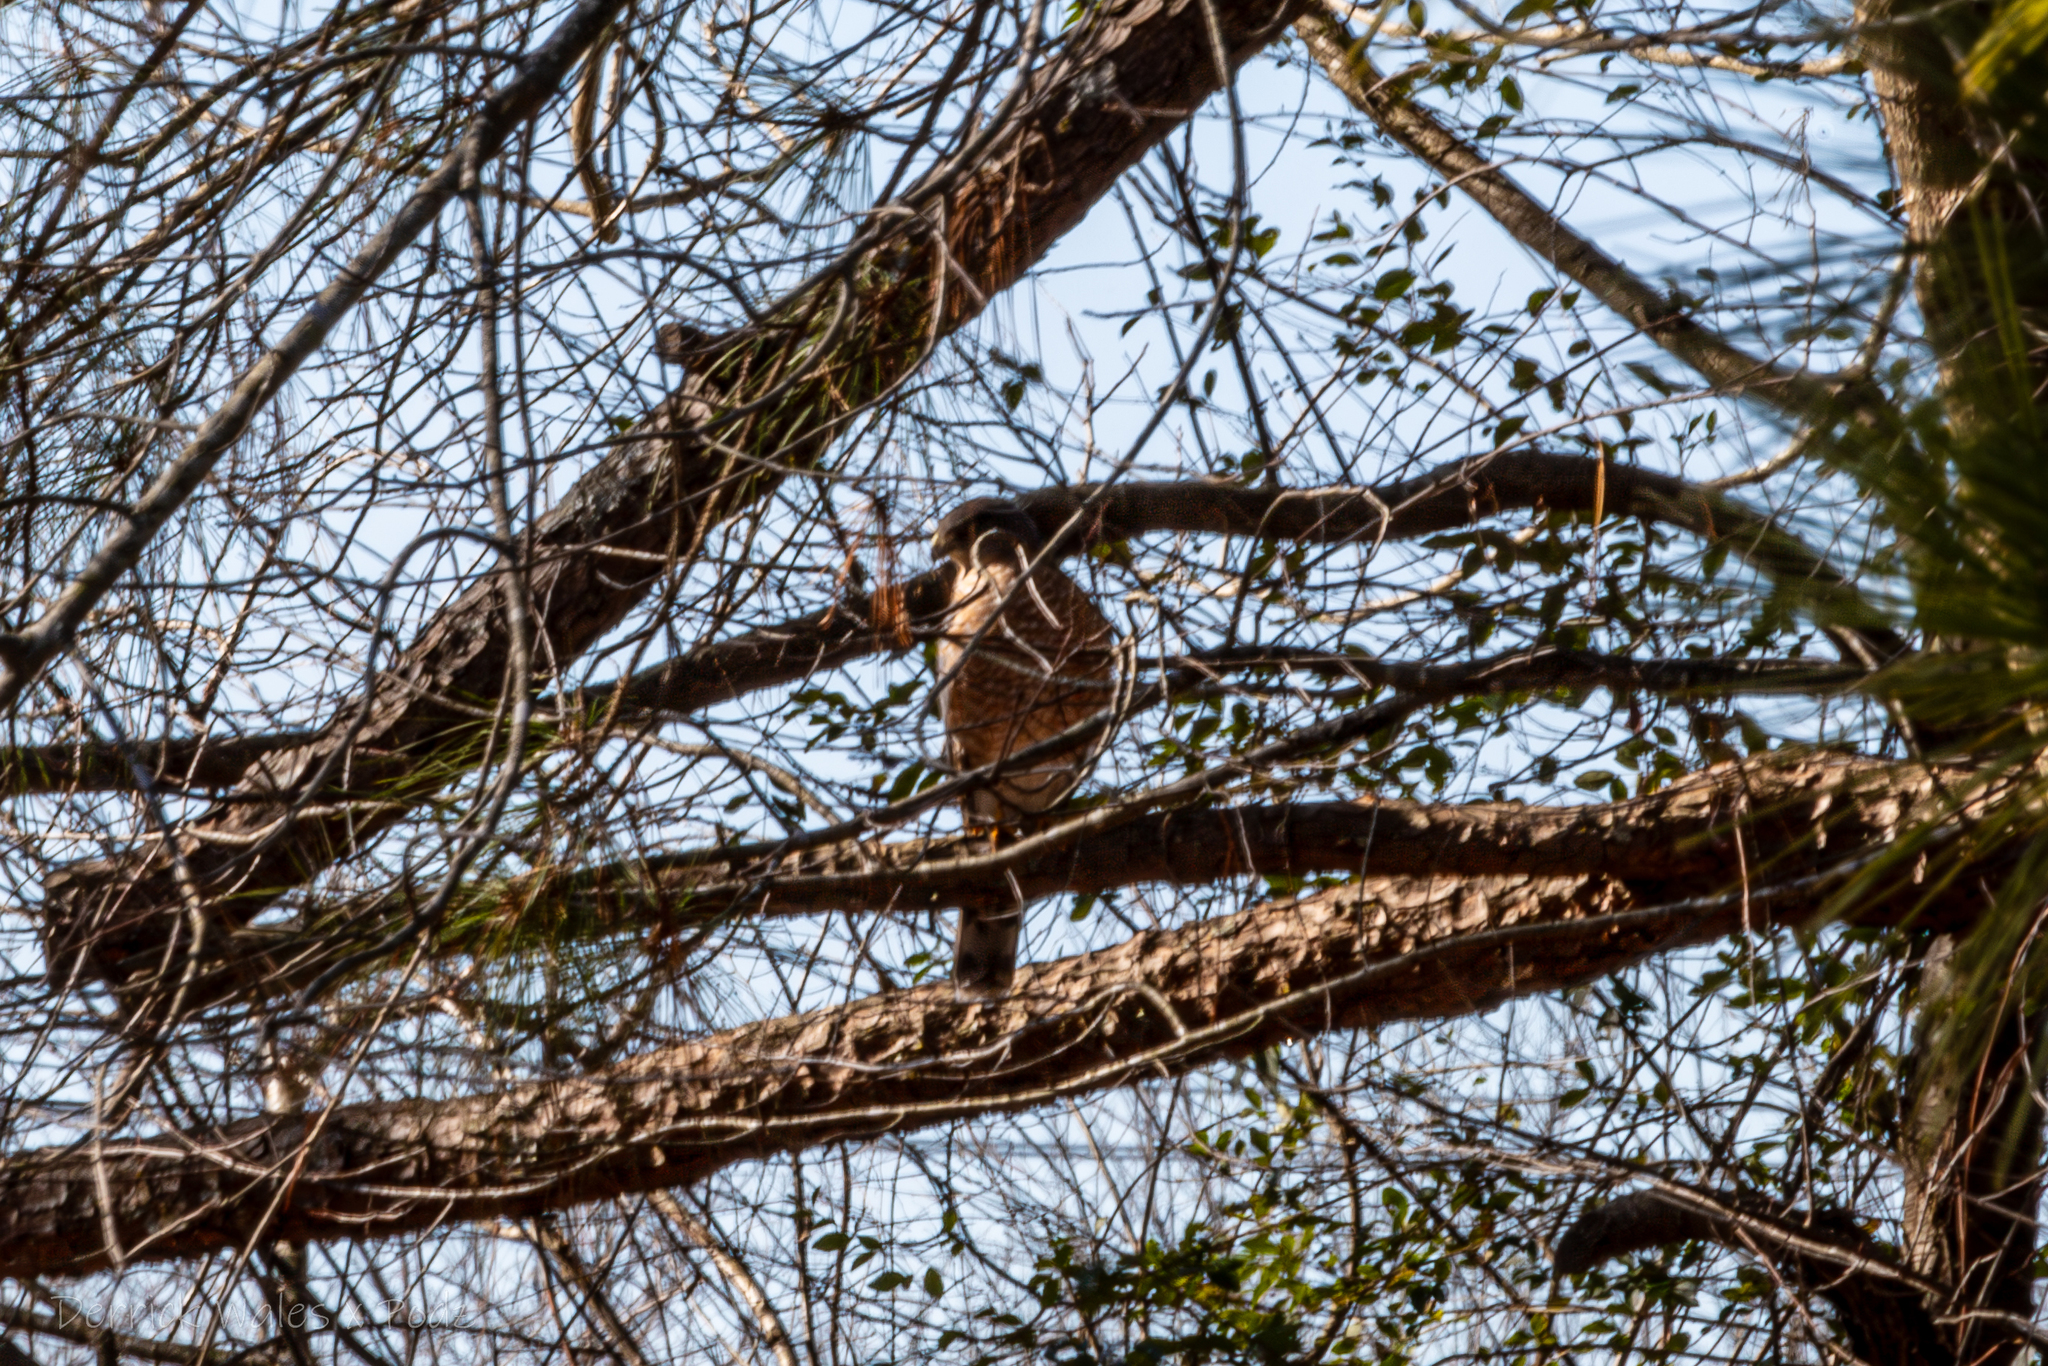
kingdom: Animalia
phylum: Chordata
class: Aves
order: Accipitriformes
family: Accipitridae
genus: Accipiter
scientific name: Accipiter cooperii
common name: Cooper's hawk
